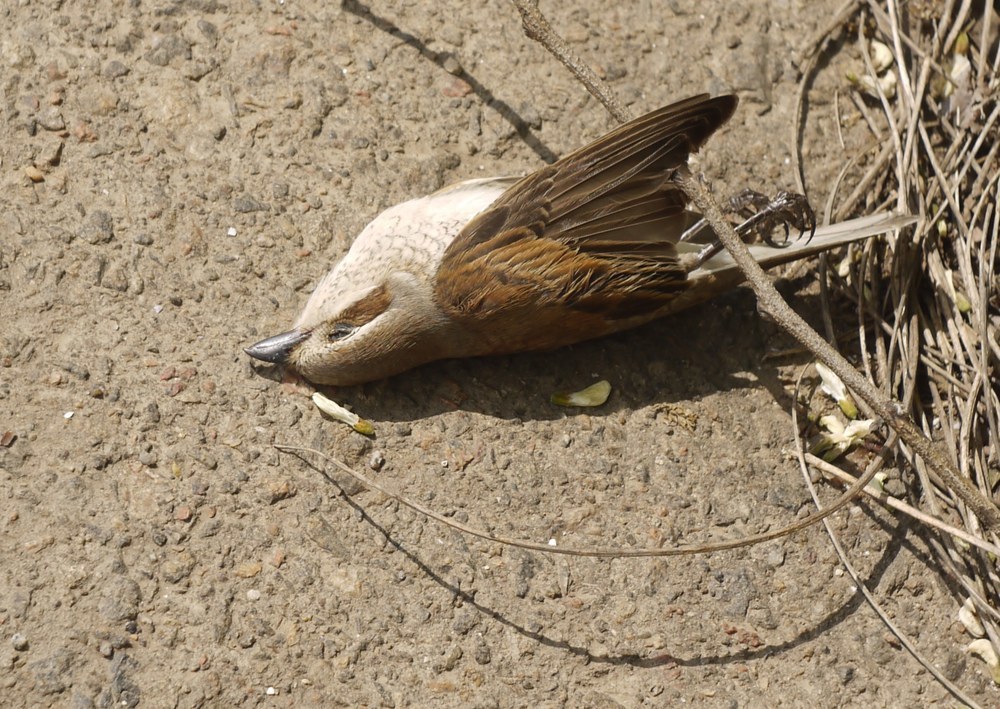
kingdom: Animalia
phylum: Chordata
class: Aves
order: Passeriformes
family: Laniidae
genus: Lanius
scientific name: Lanius collurio
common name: Red-backed shrike
